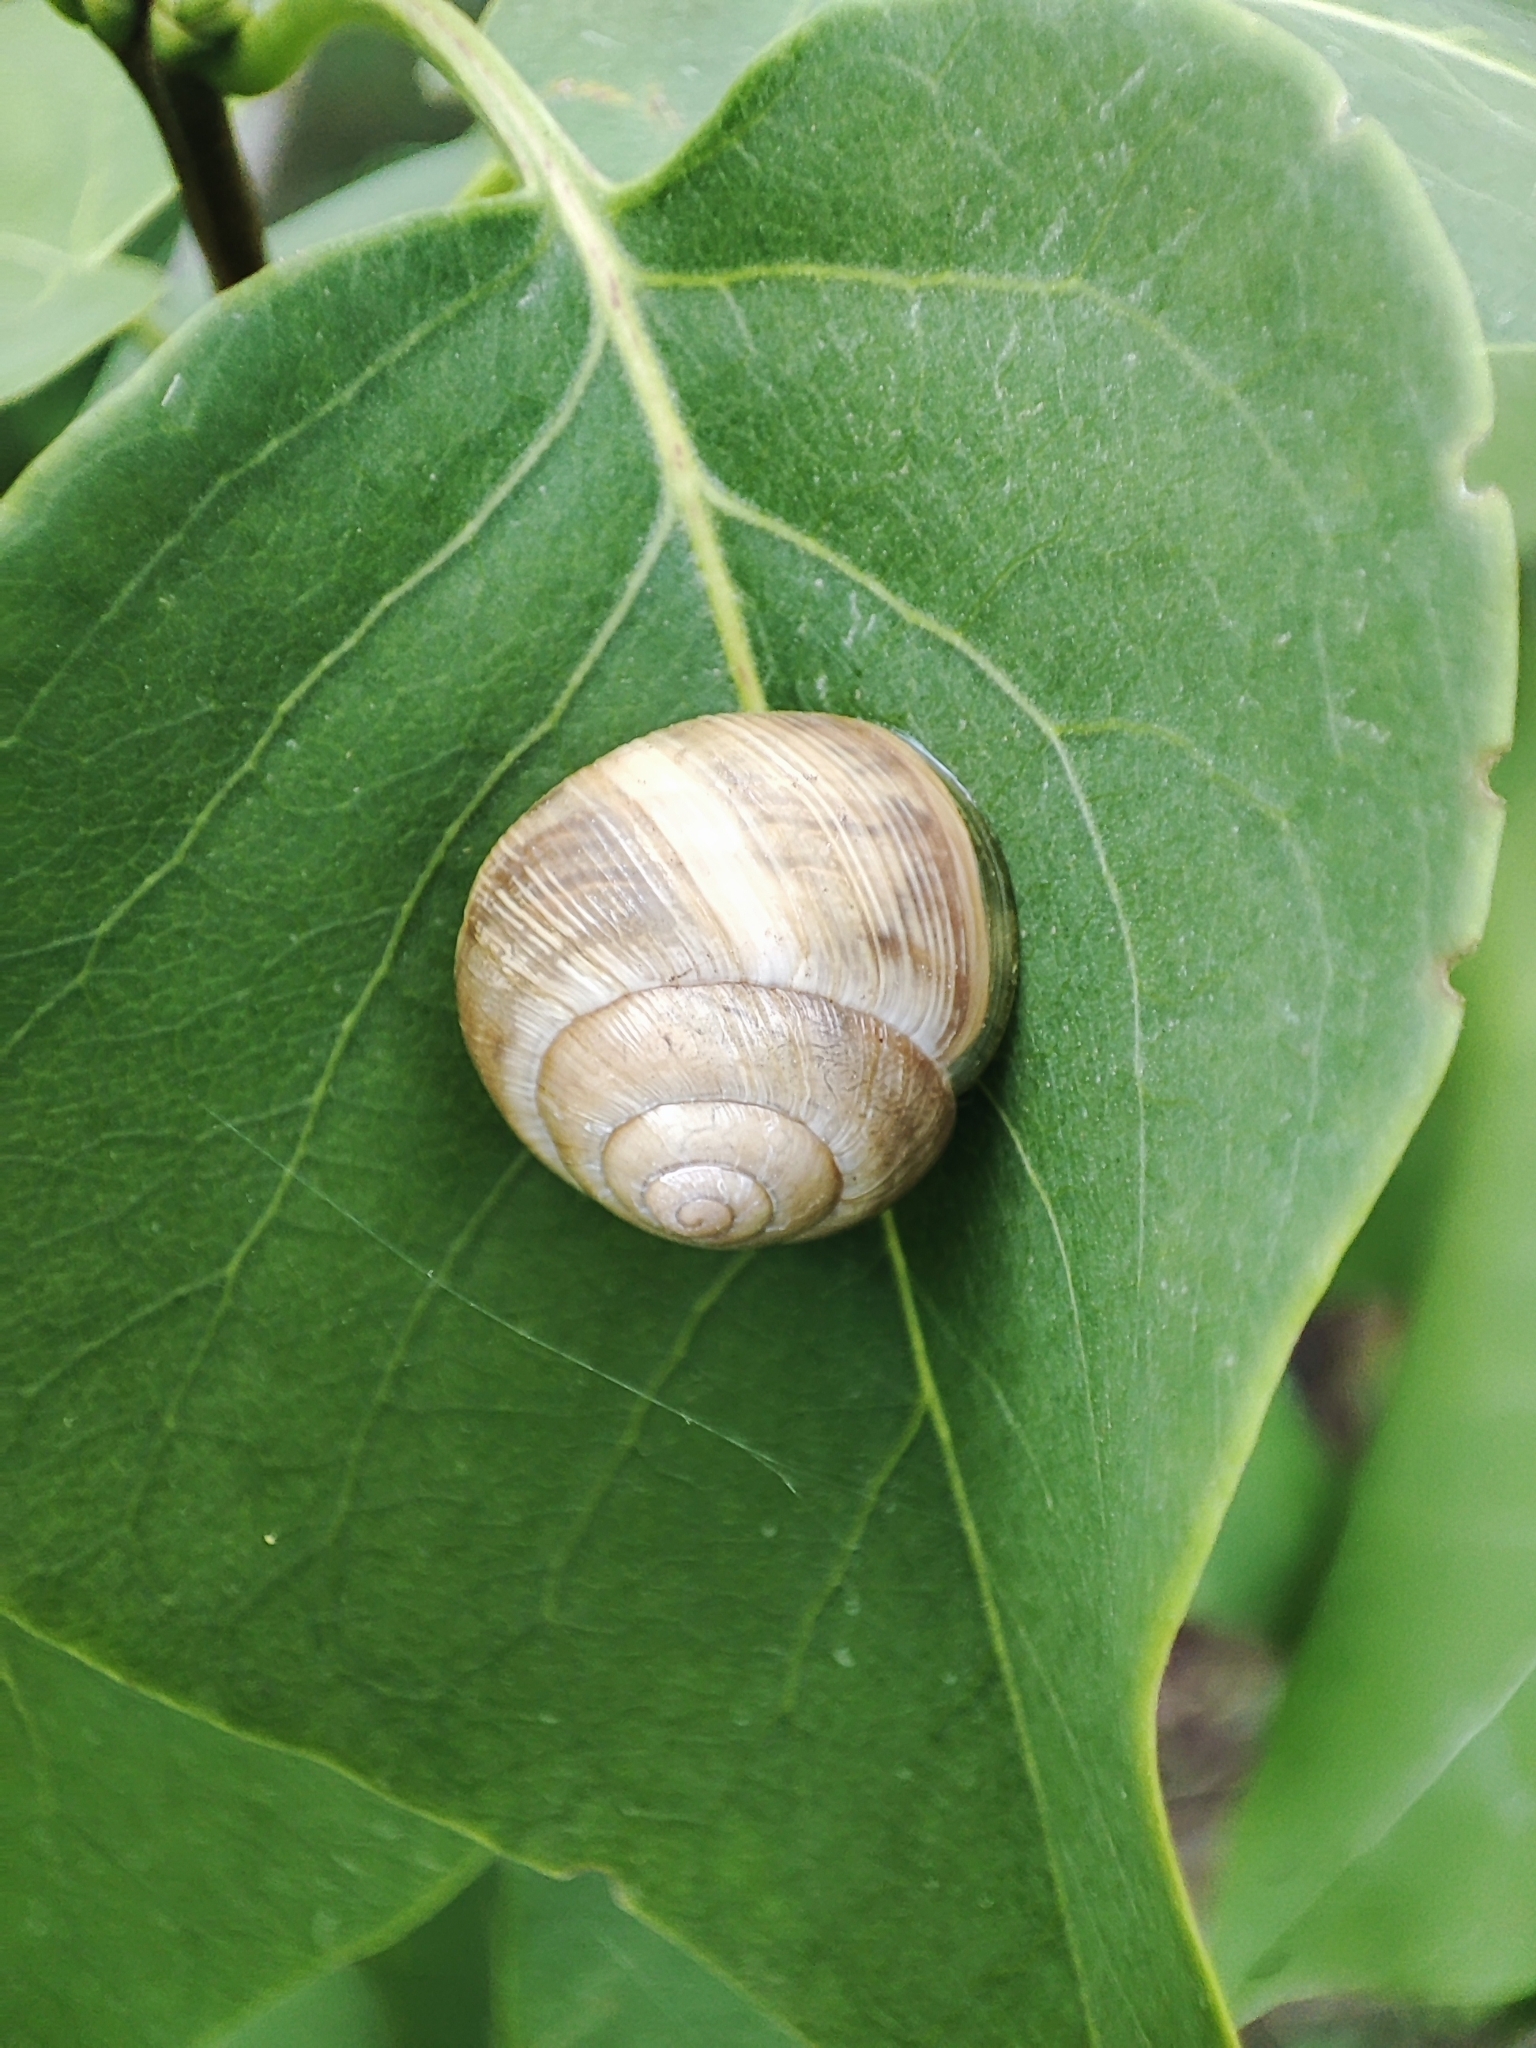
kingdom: Animalia
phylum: Mollusca
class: Gastropoda
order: Stylommatophora
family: Helicidae
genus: Caucasotachea
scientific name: Caucasotachea vindobonensis
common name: European helicid land snail
